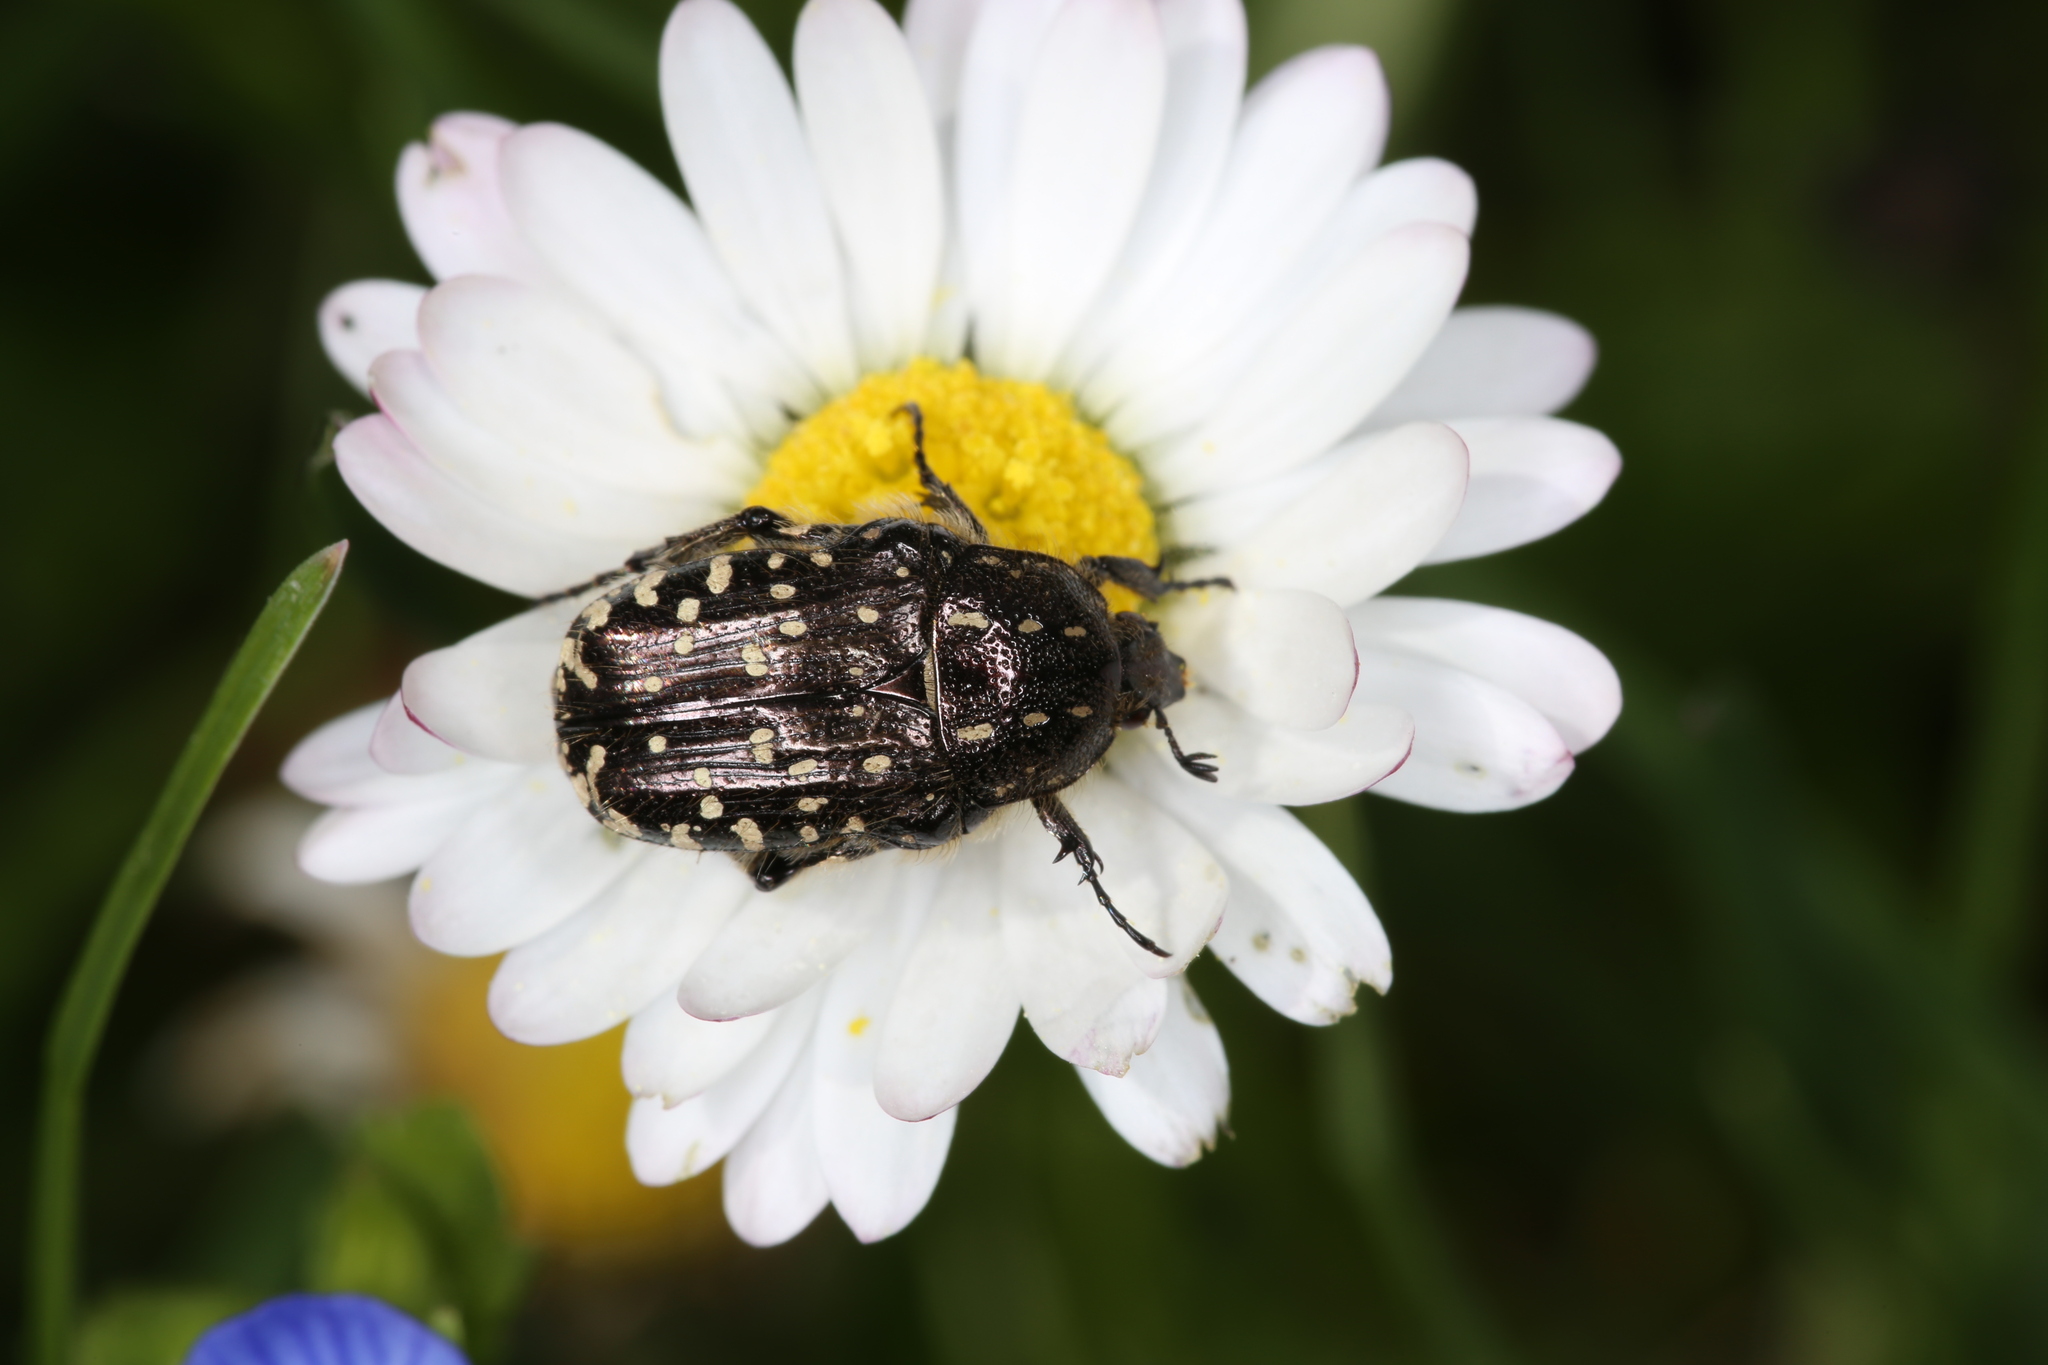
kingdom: Animalia
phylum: Arthropoda
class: Insecta
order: Coleoptera
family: Scarabaeidae
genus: Oxythyrea
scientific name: Oxythyrea funesta
